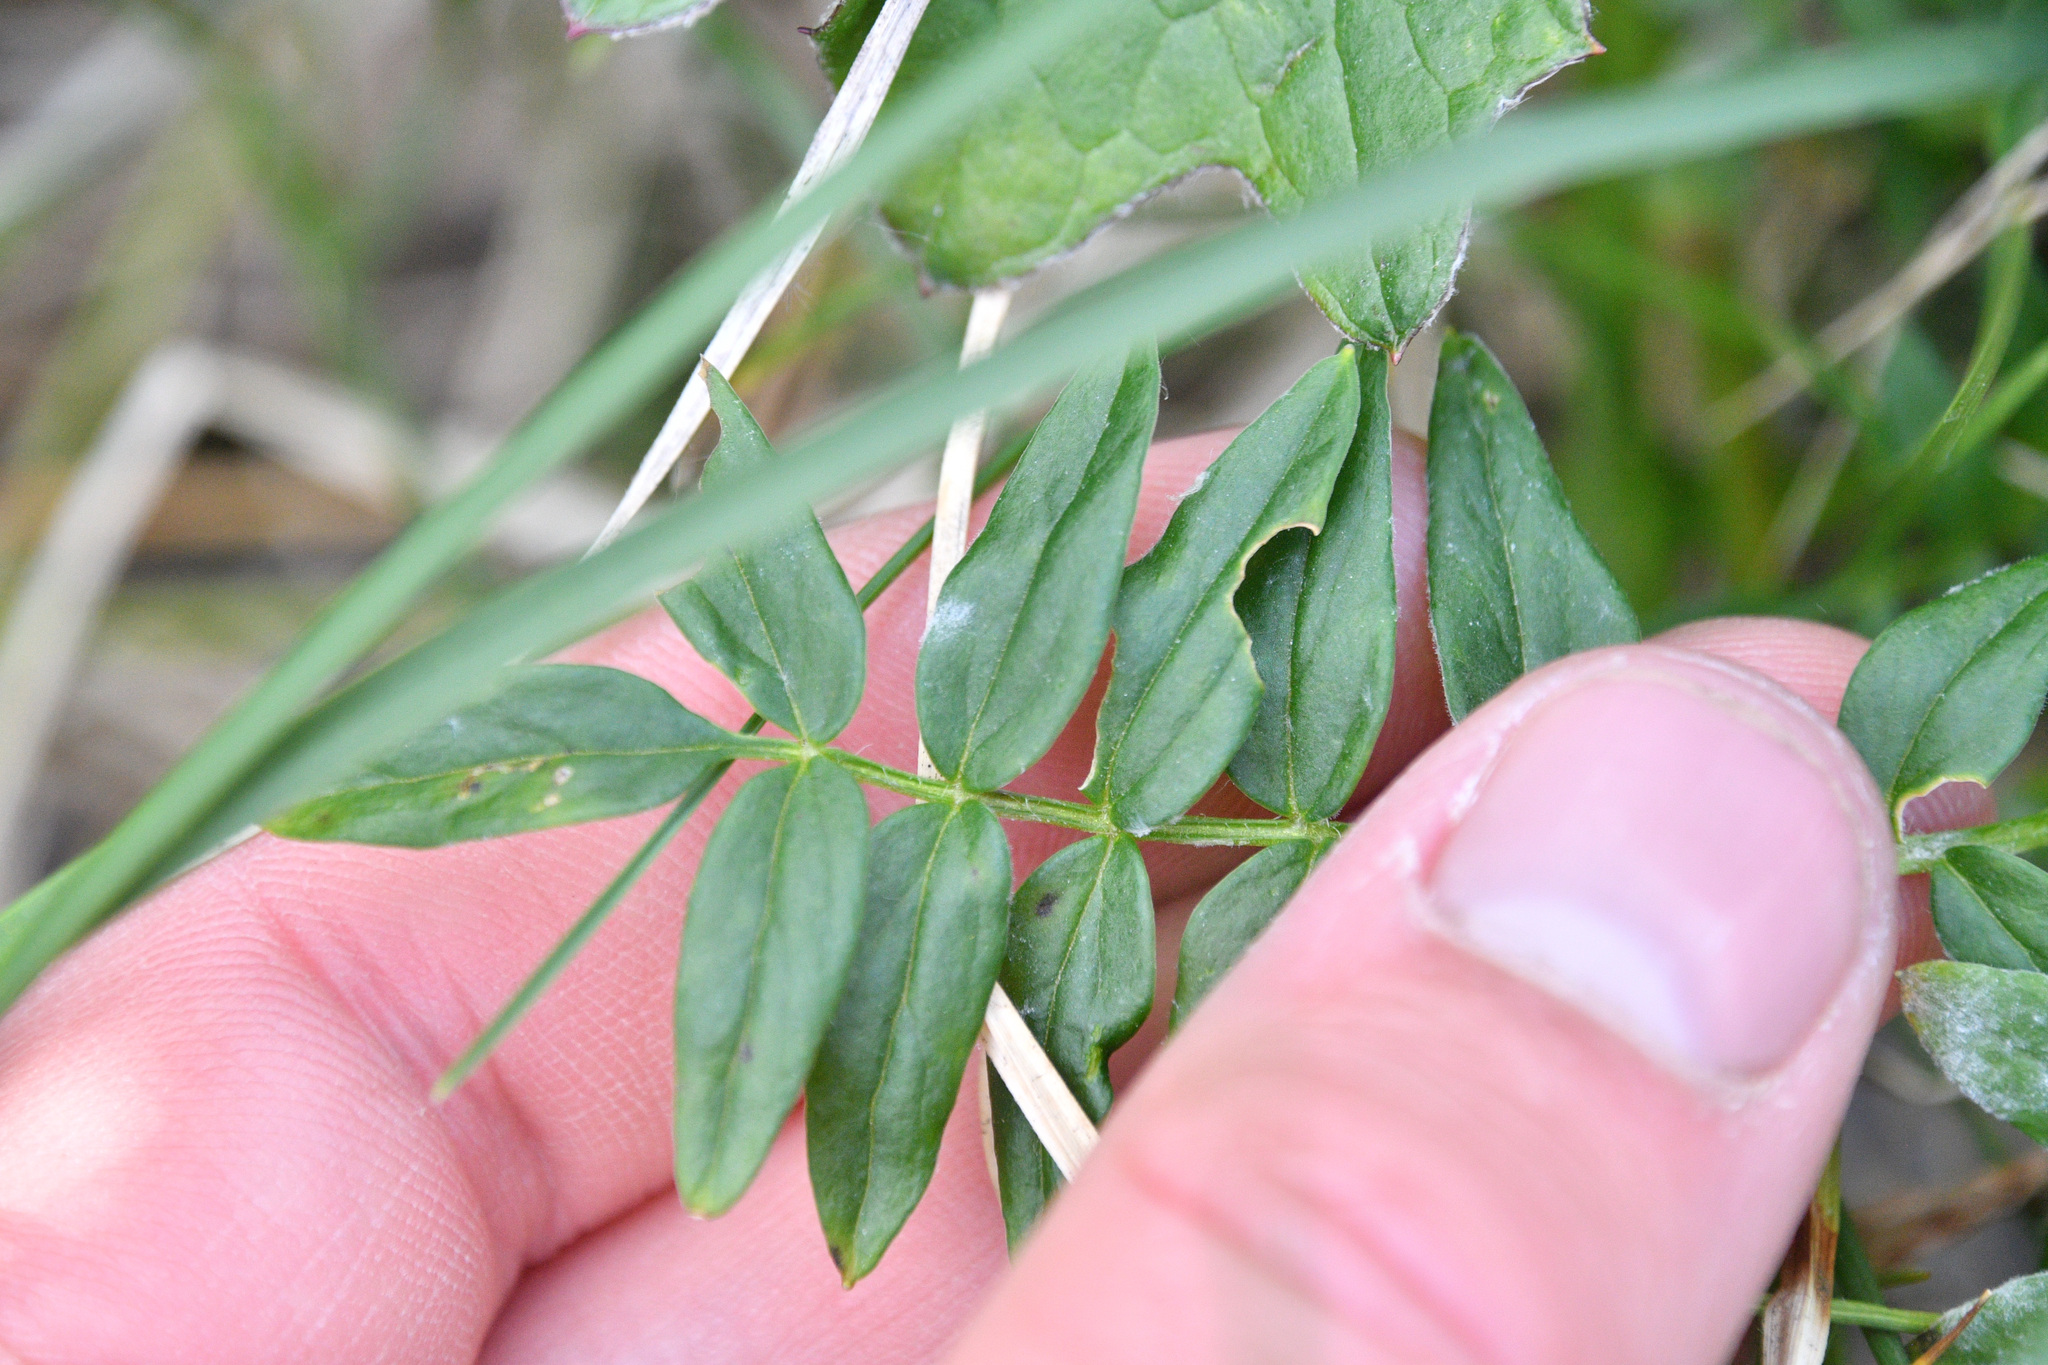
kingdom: Plantae
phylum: Tracheophyta
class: Magnoliopsida
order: Ericales
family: Polemoniaceae
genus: Polemonium
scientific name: Polemonium acutiflorum
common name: Tall jacob's-ladder
